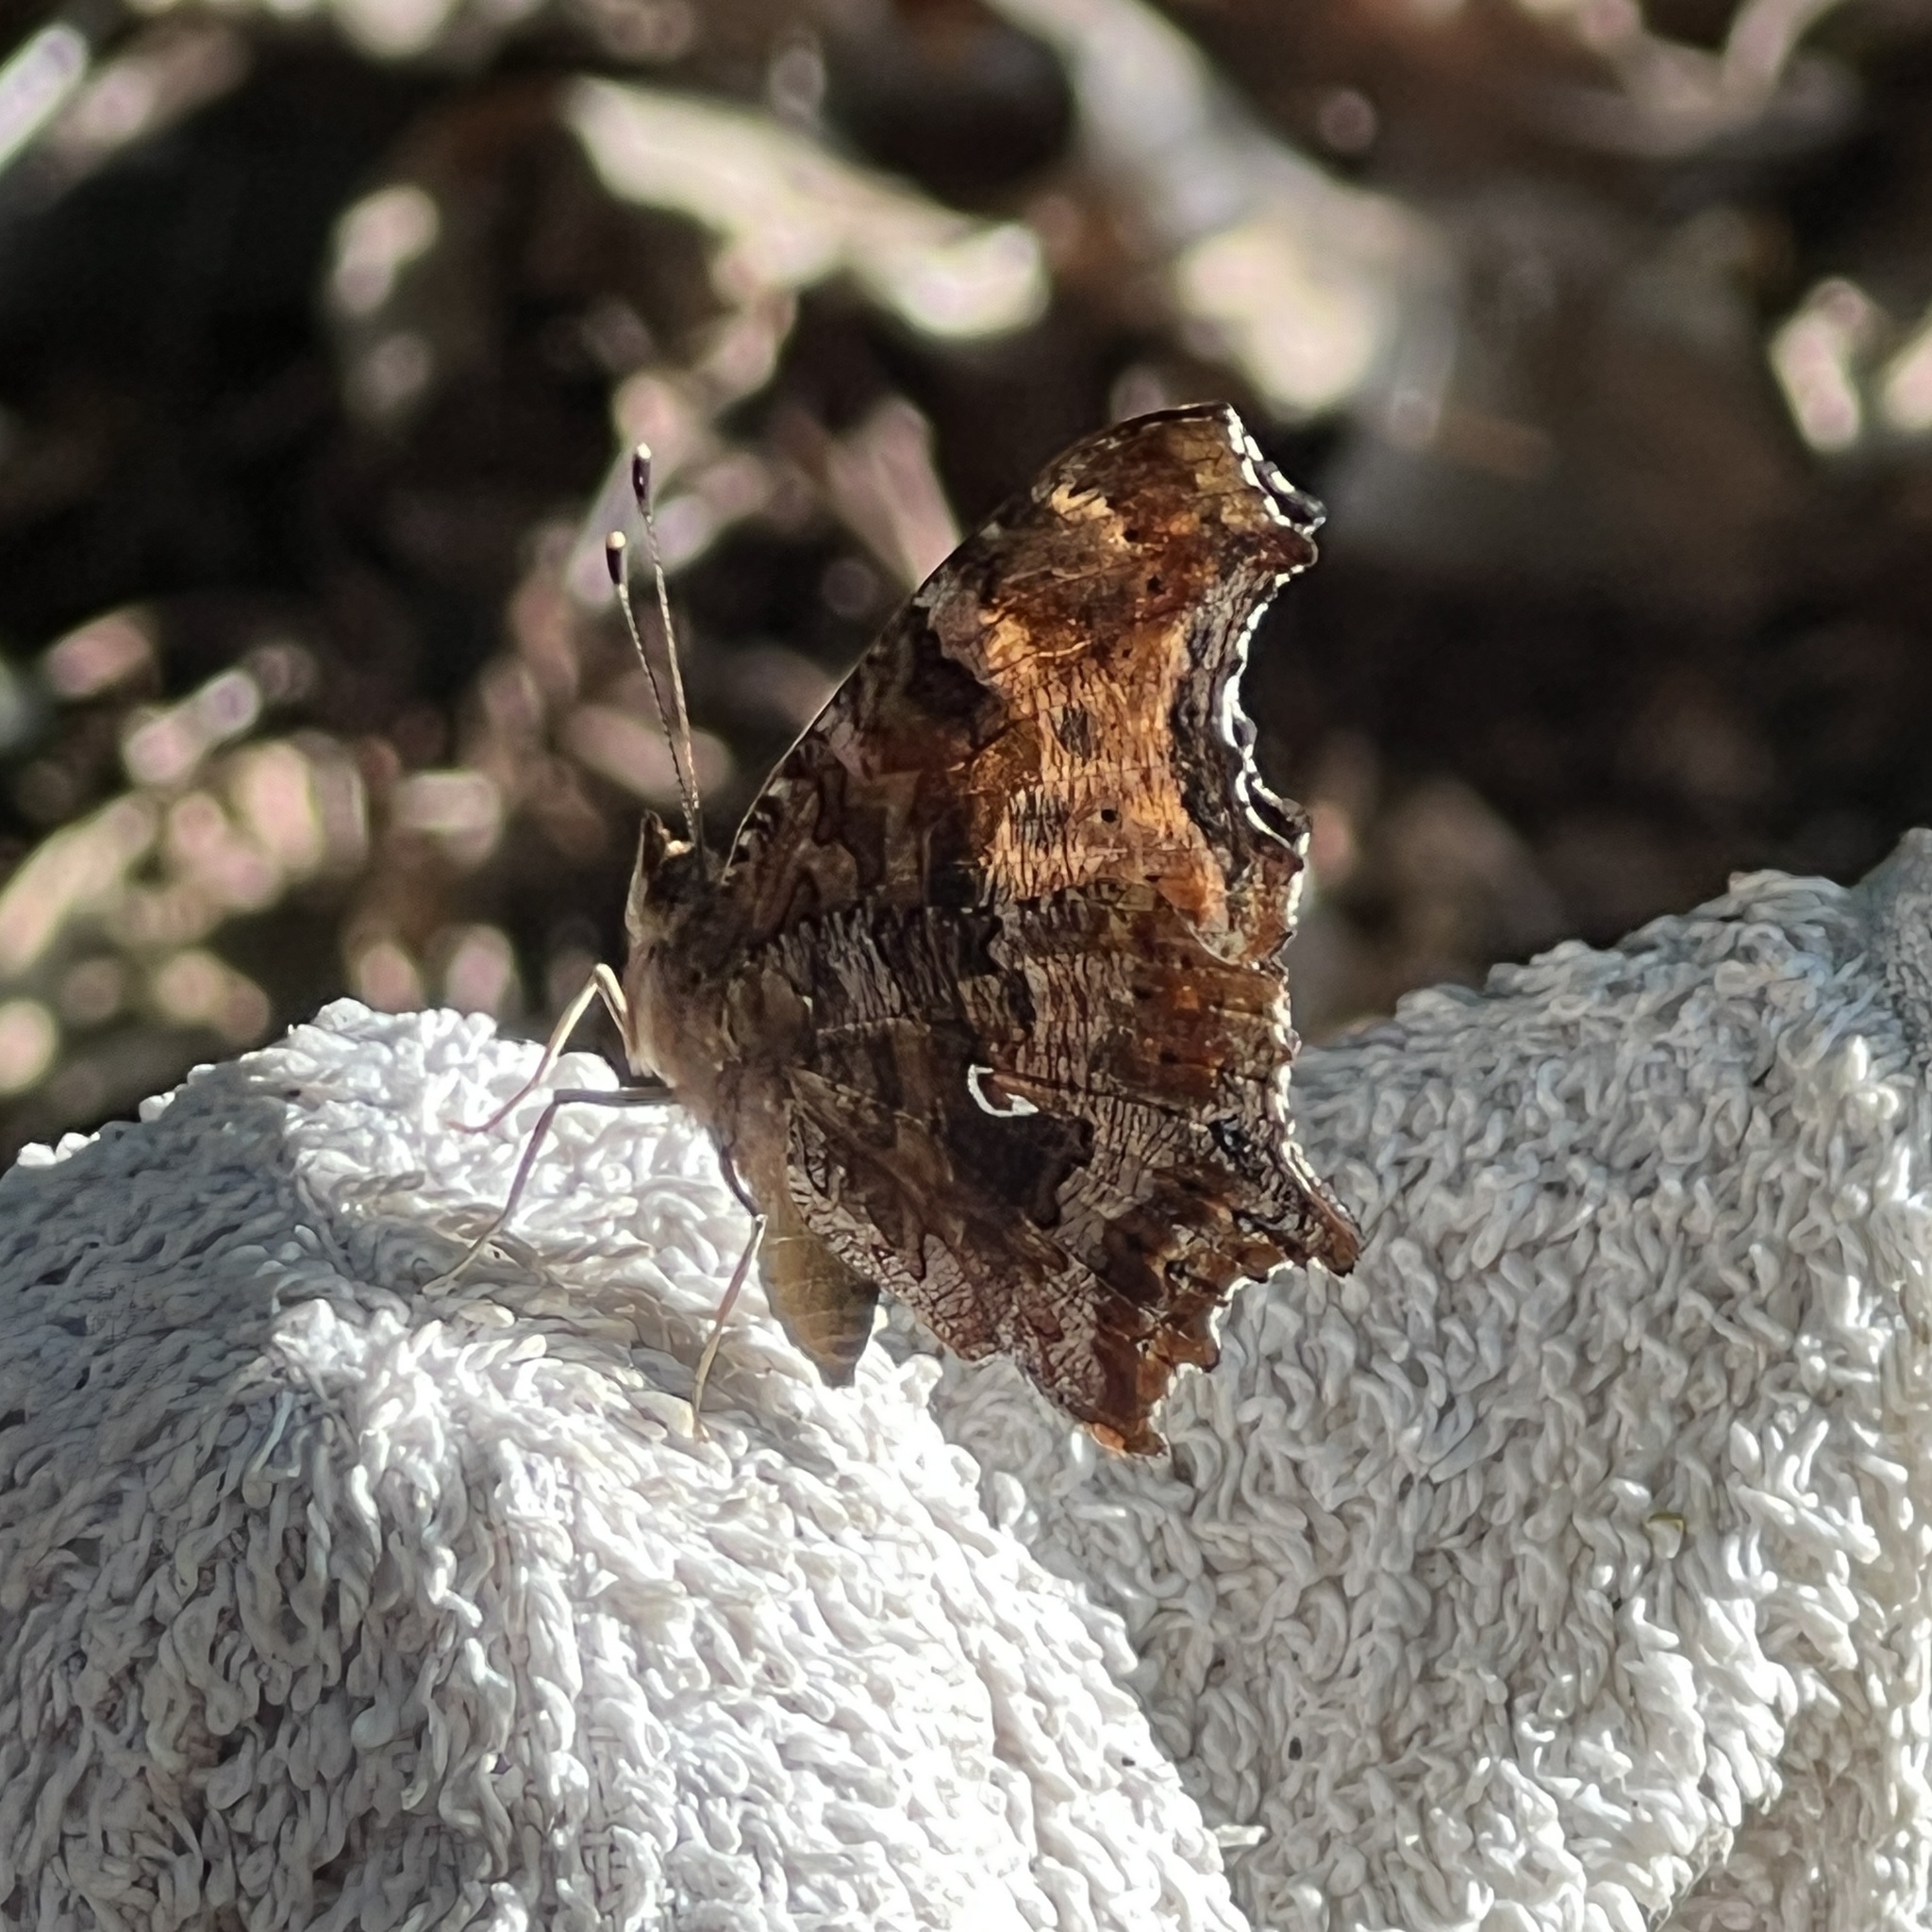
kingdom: Animalia
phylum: Arthropoda
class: Insecta
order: Lepidoptera
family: Nymphalidae
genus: Polygonia
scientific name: Polygonia comma
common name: Eastern comma
